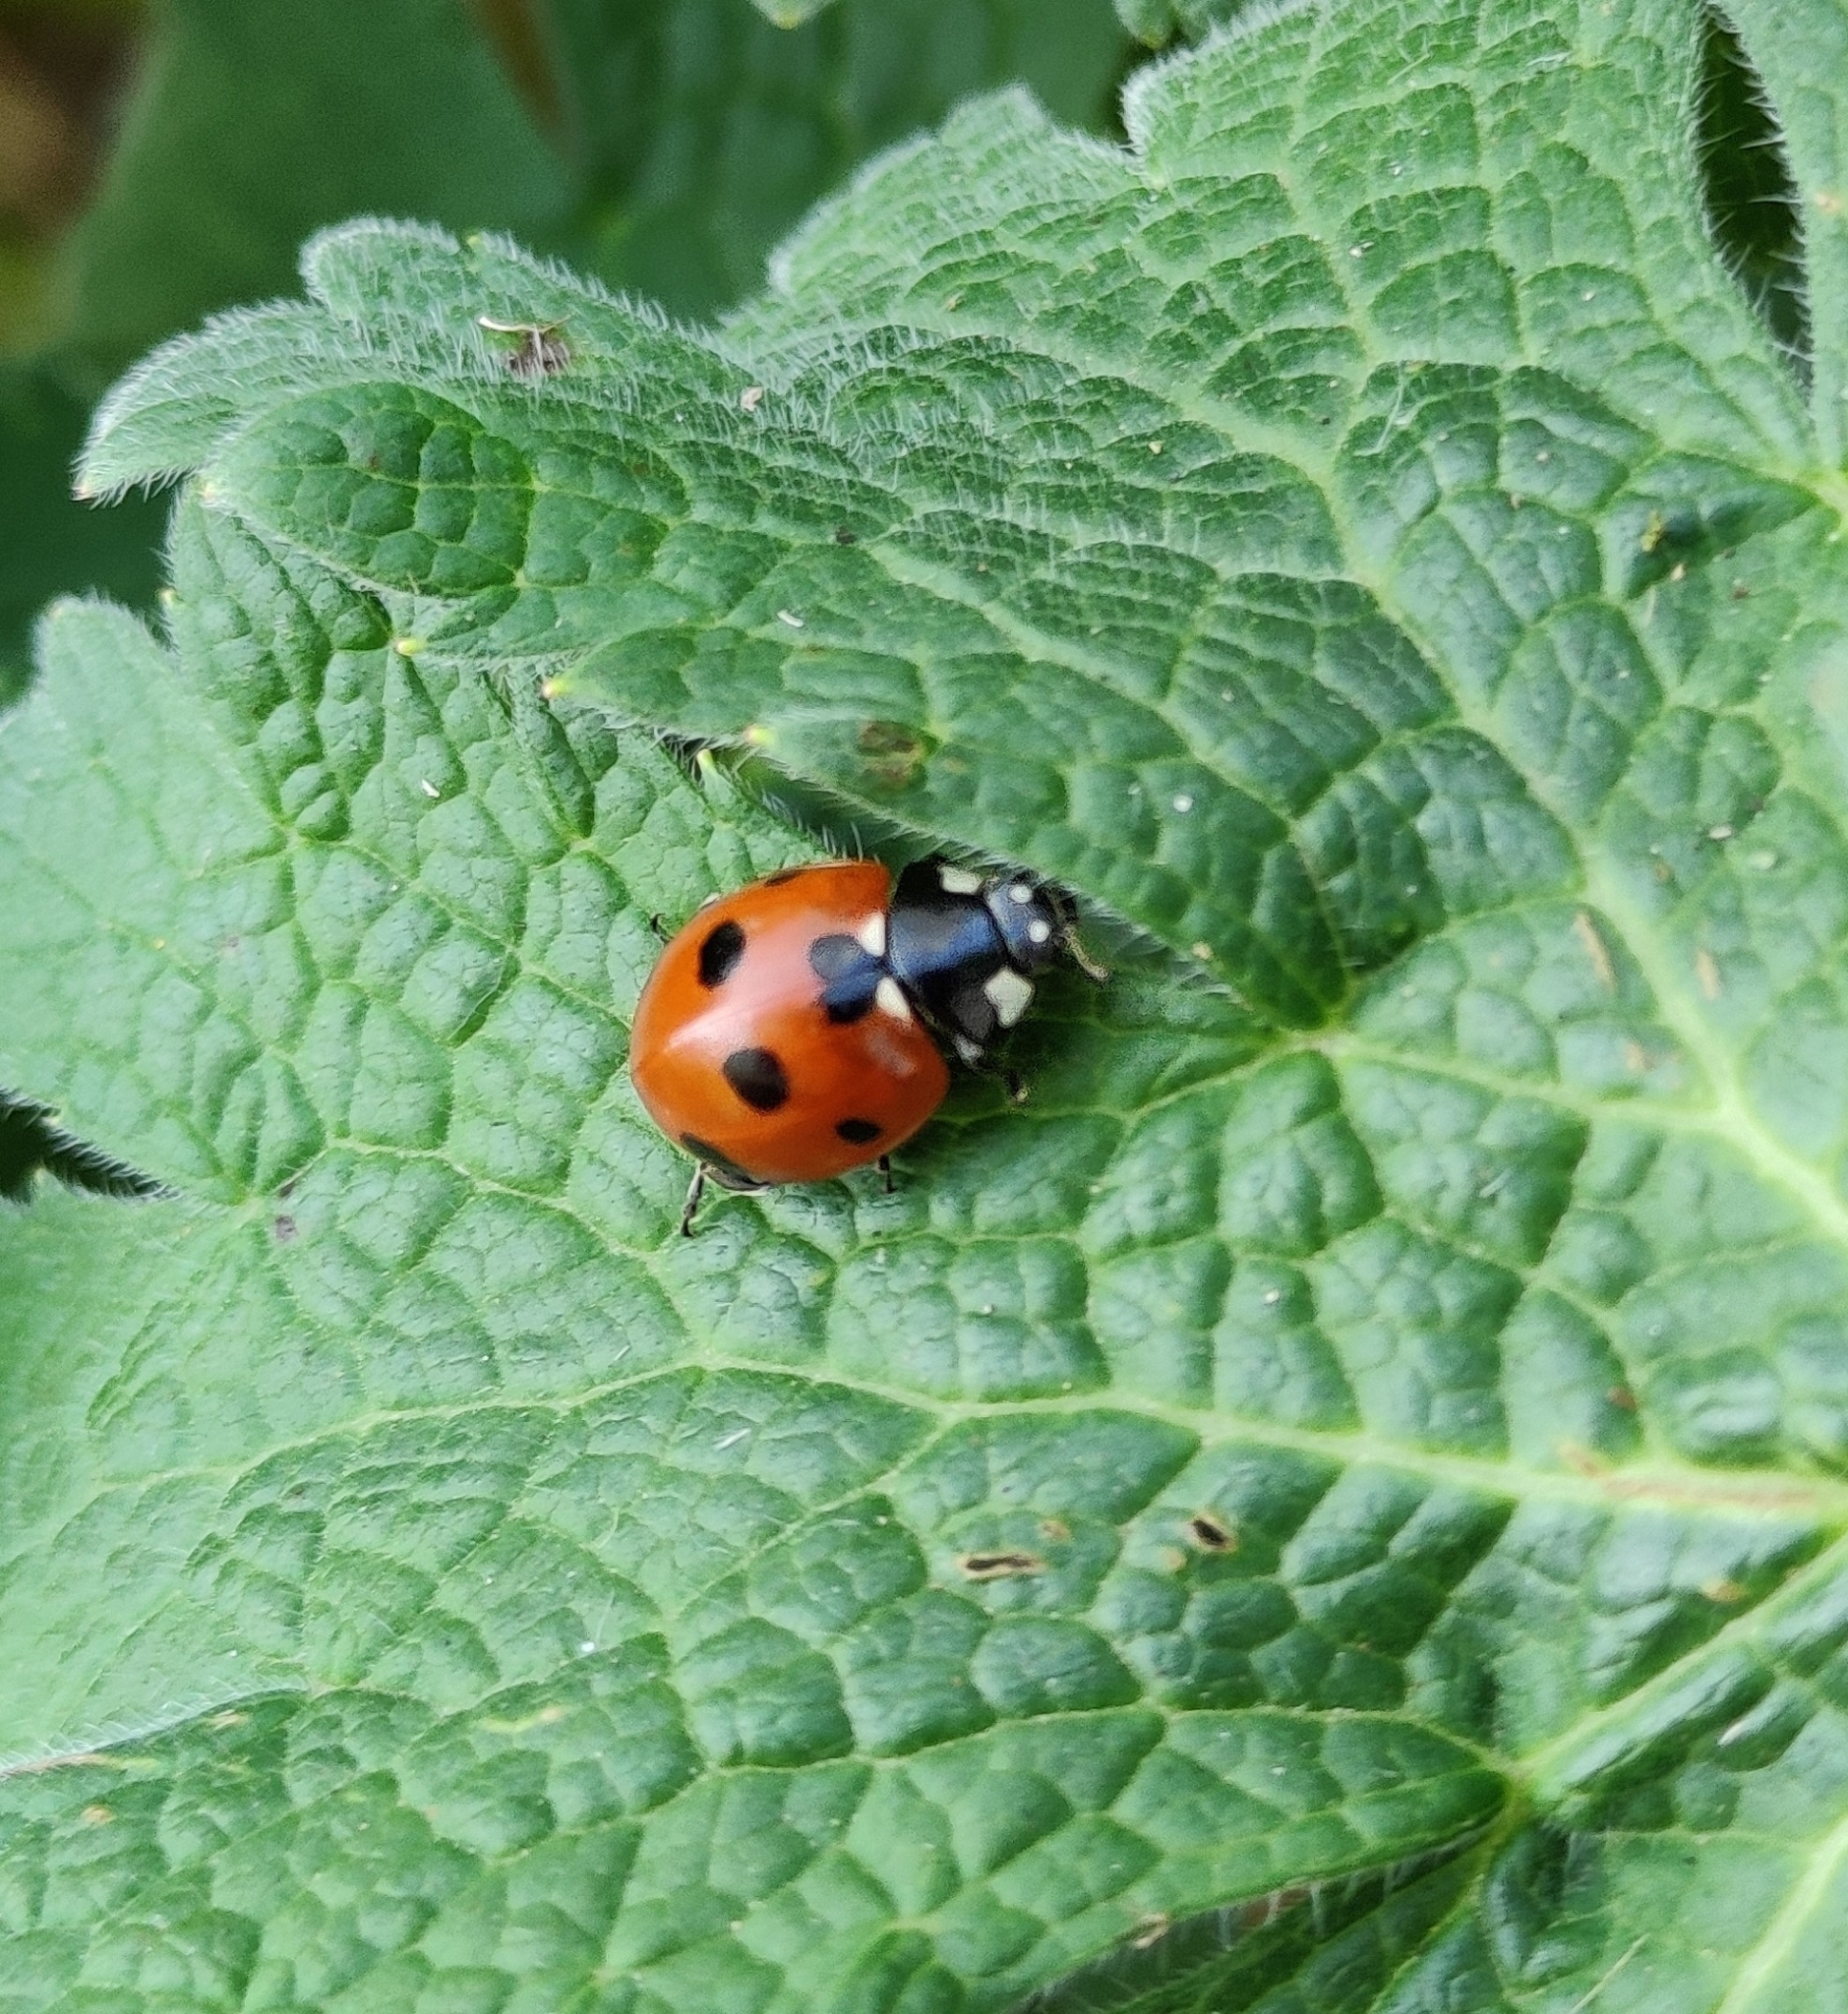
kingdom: Animalia
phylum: Arthropoda
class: Insecta
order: Coleoptera
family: Coccinellidae
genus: Coccinella
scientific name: Coccinella septempunctata
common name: Sevenspotted lady beetle
